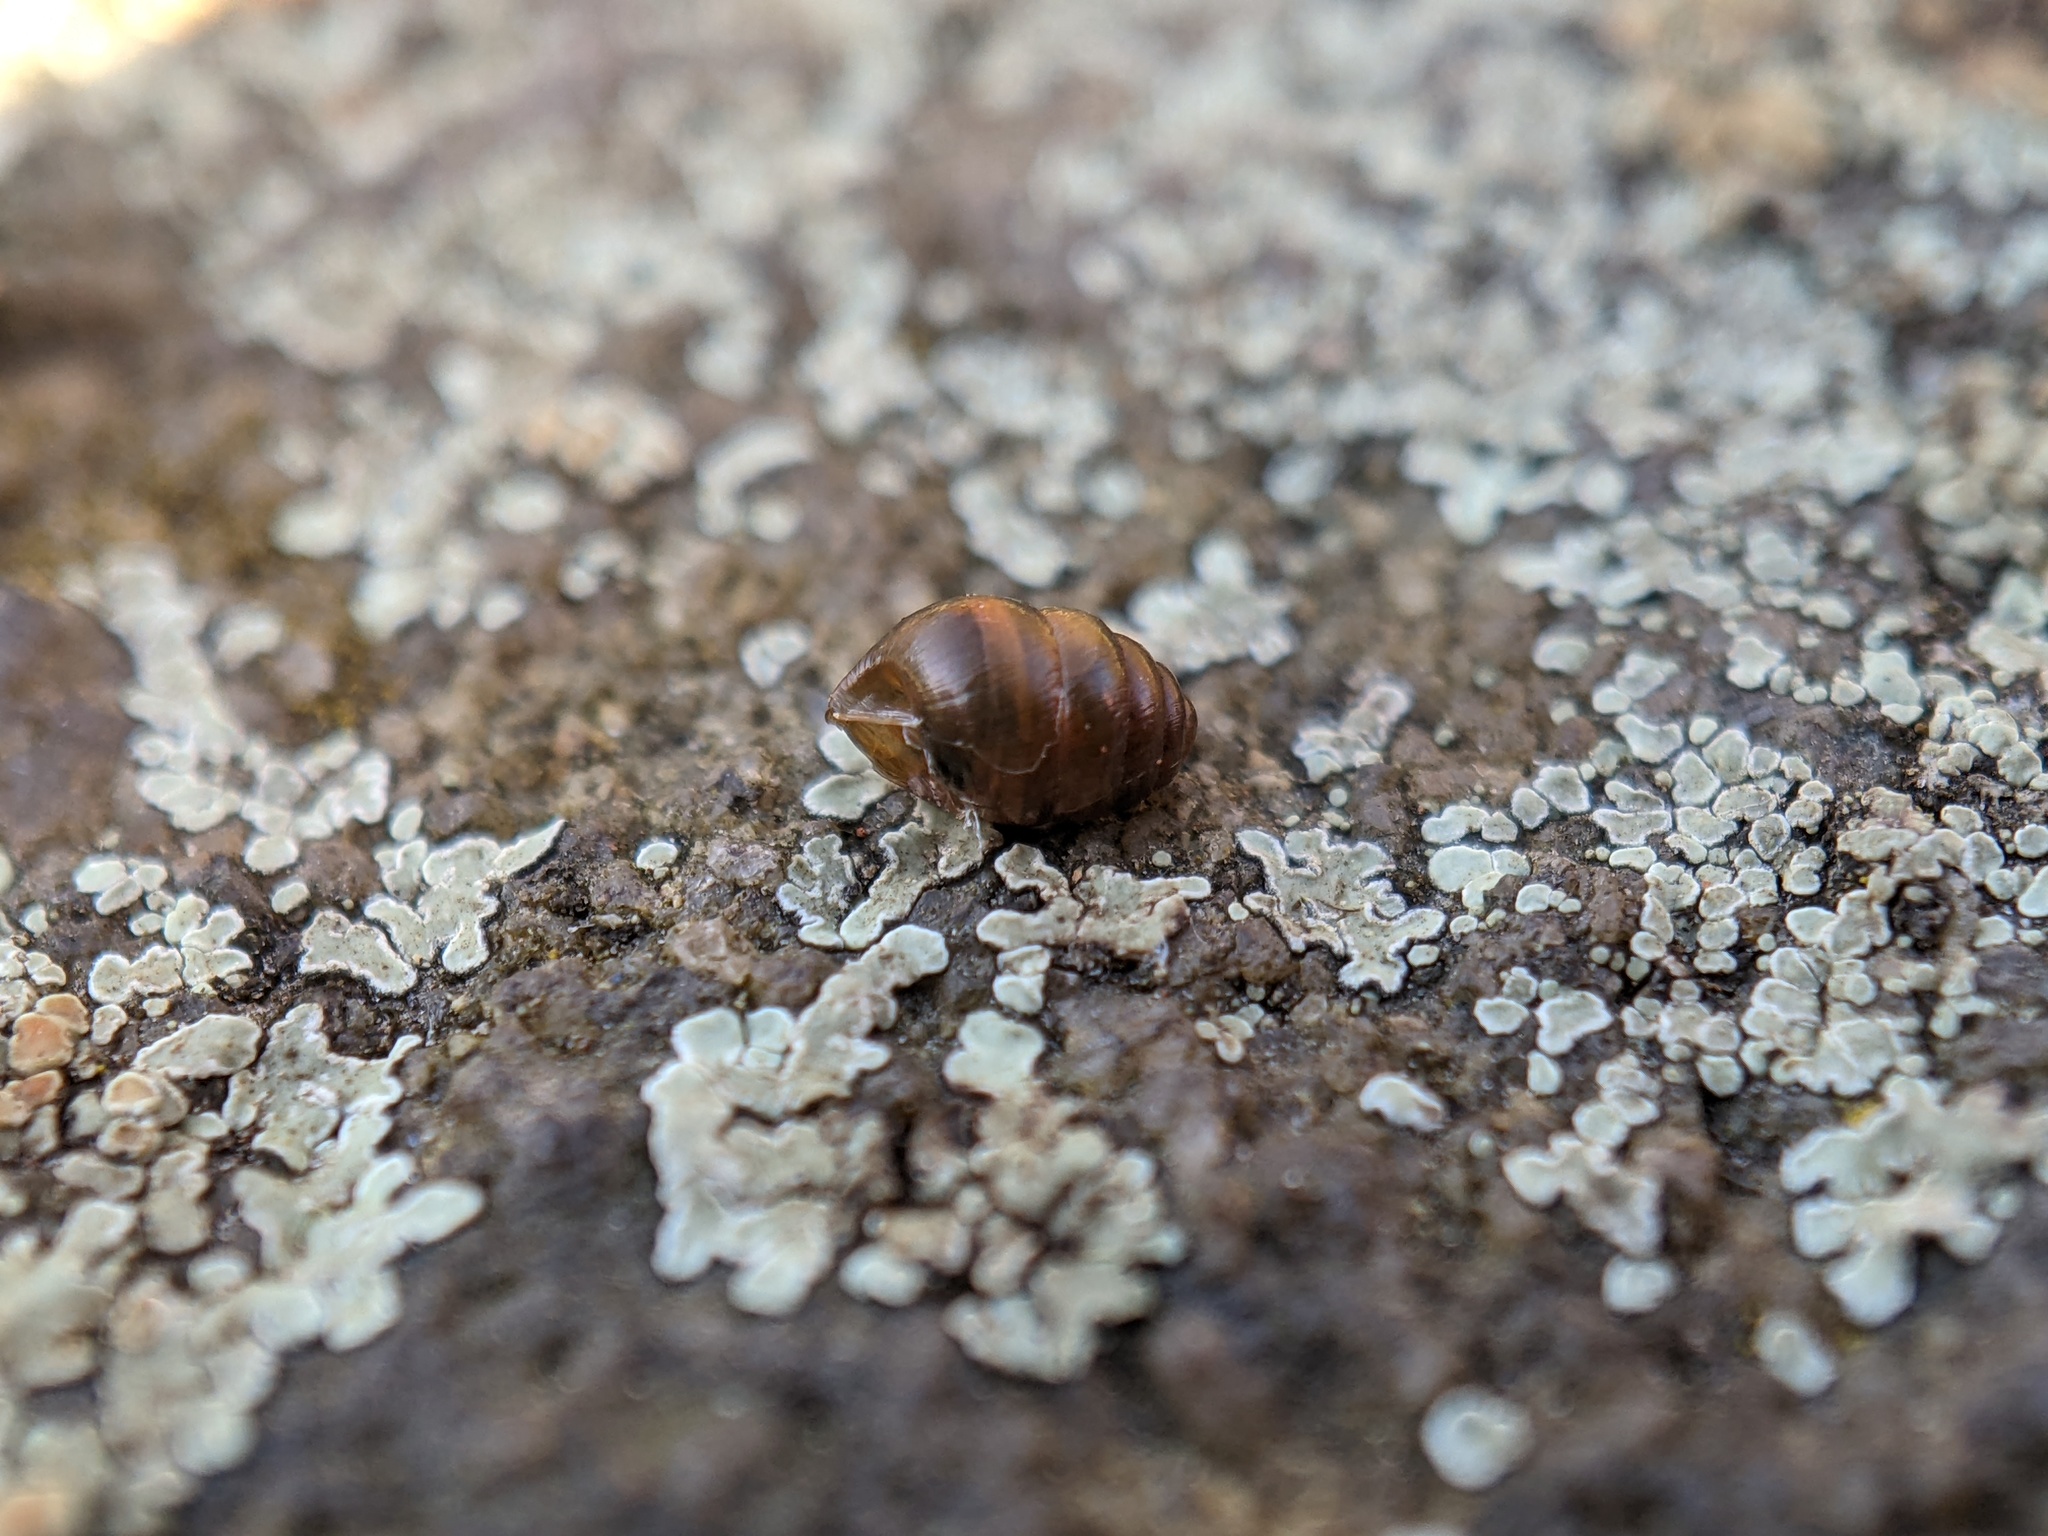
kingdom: Animalia
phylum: Mollusca
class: Gastropoda
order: Stylommatophora
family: Lauriidae
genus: Lauria
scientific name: Lauria cylindracea
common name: Common chrysalis snail
